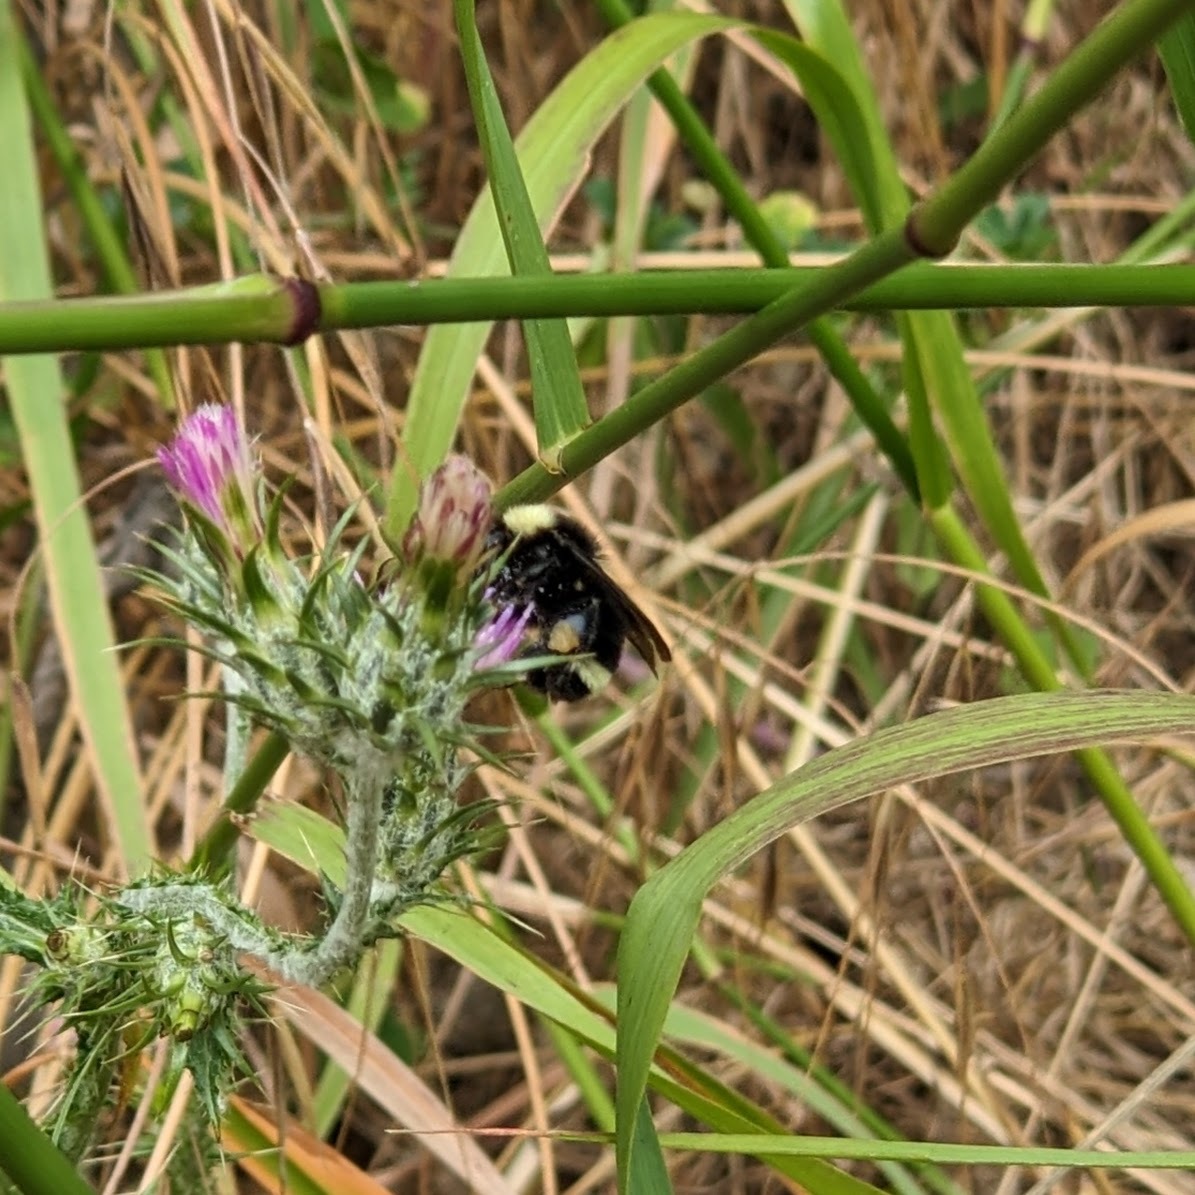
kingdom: Animalia
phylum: Arthropoda
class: Insecta
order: Hymenoptera
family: Apidae
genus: Bombus
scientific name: Bombus californicus
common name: California bumble bee
